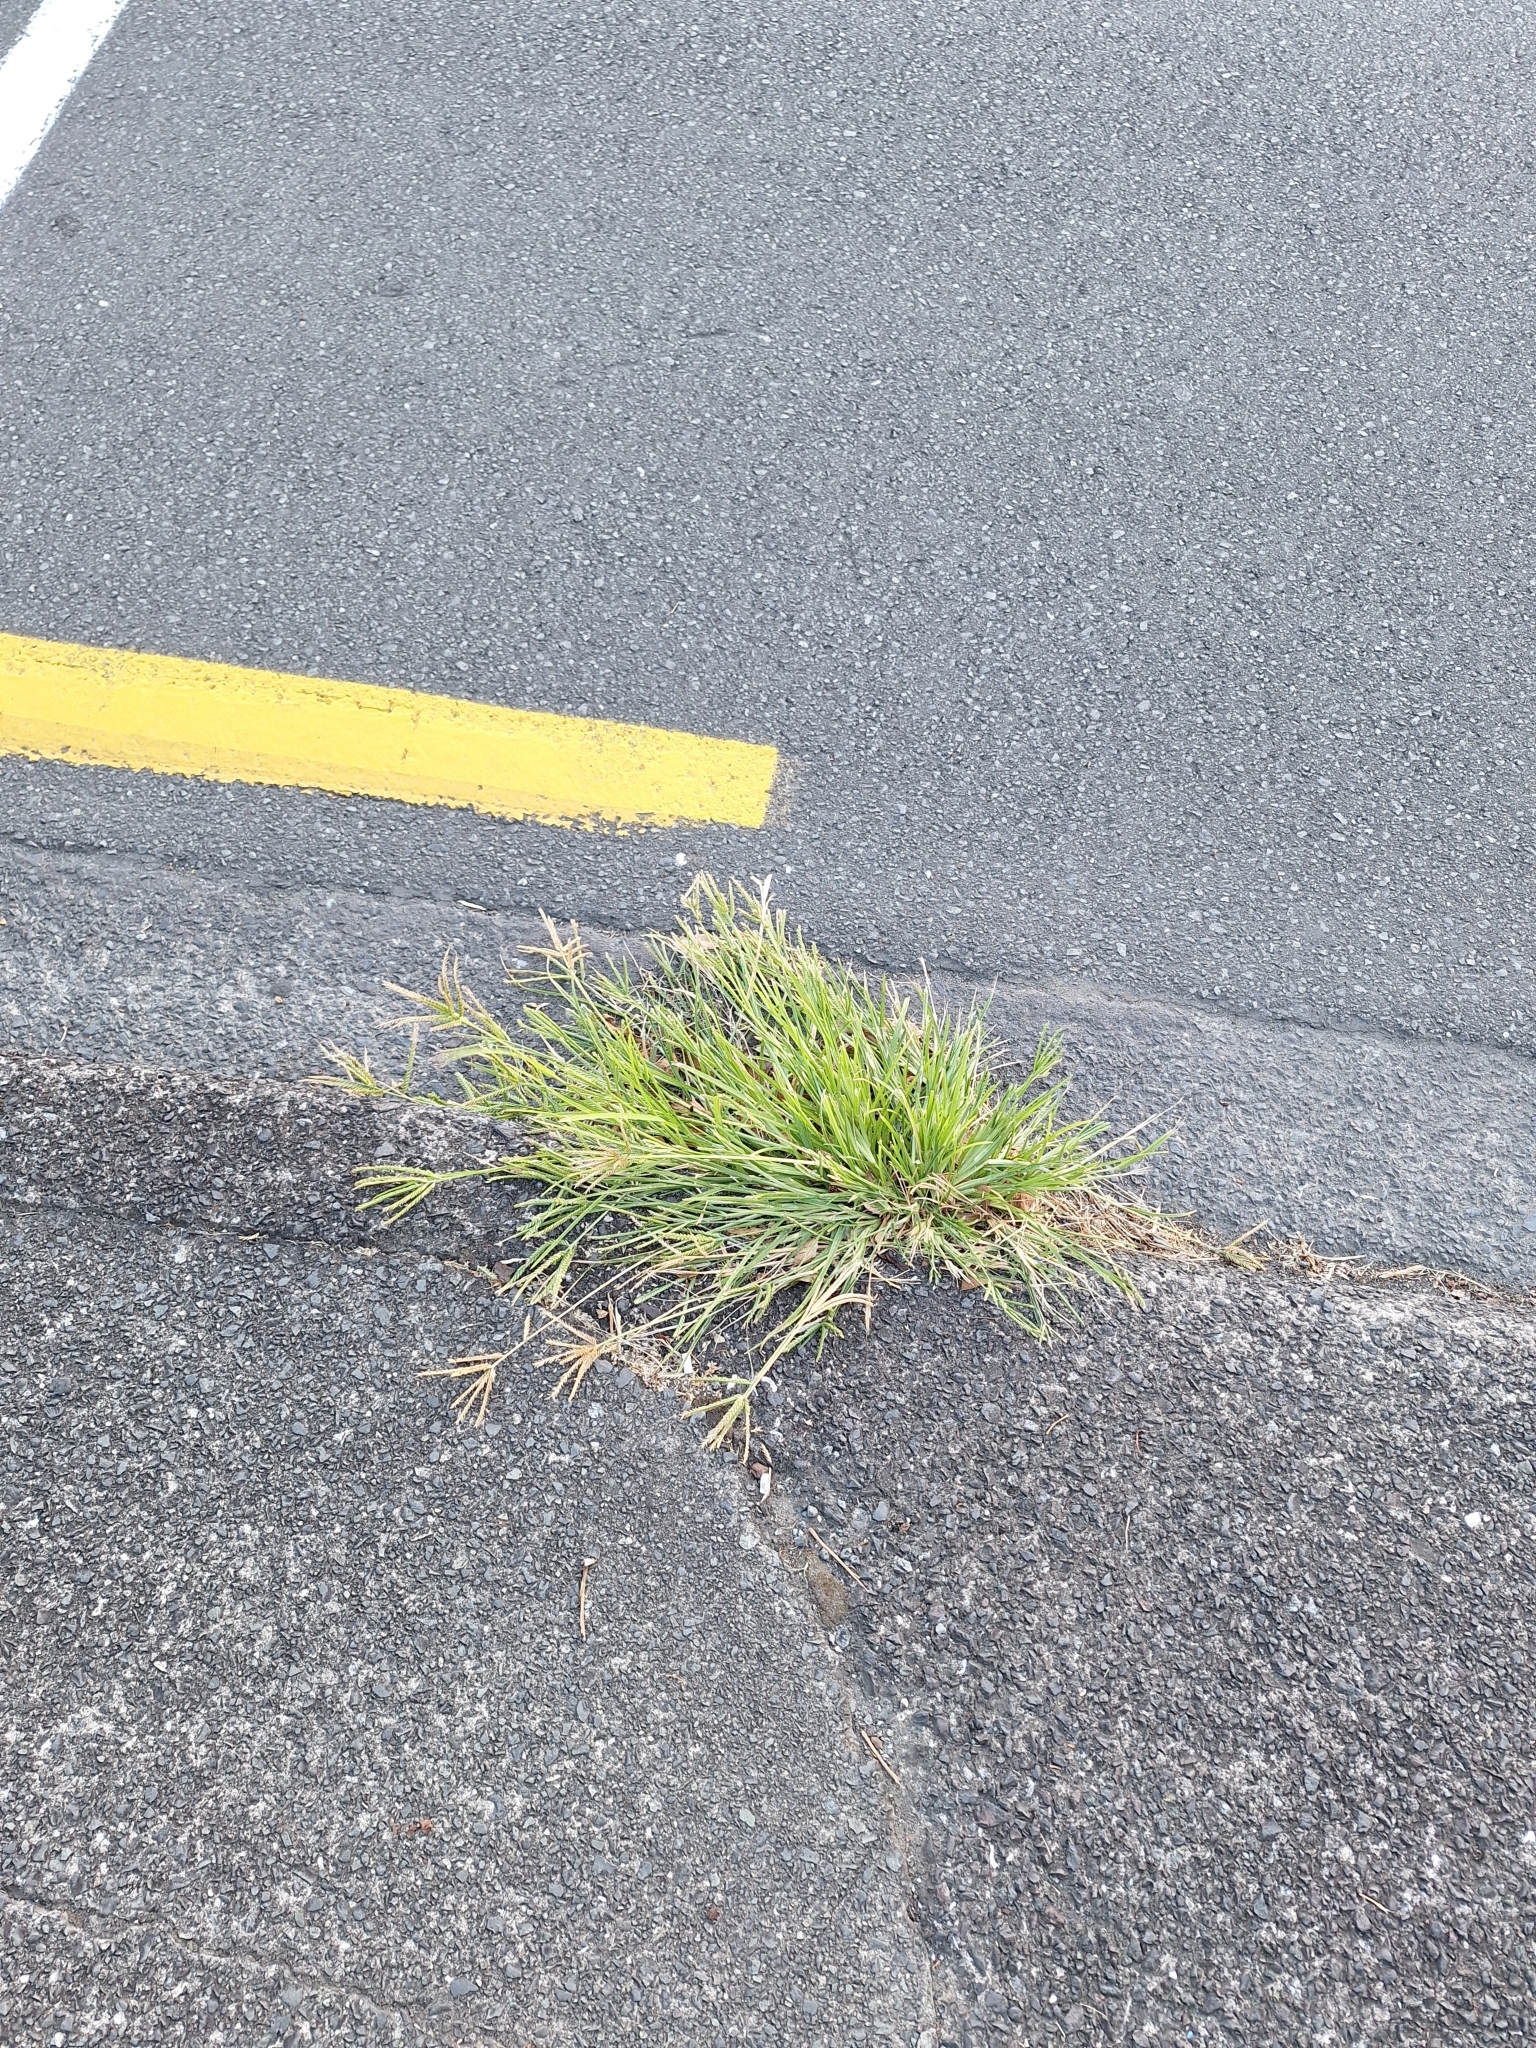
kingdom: Plantae
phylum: Tracheophyta
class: Liliopsida
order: Poales
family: Poaceae
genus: Eleusine
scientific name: Eleusine indica
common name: Yard-grass
